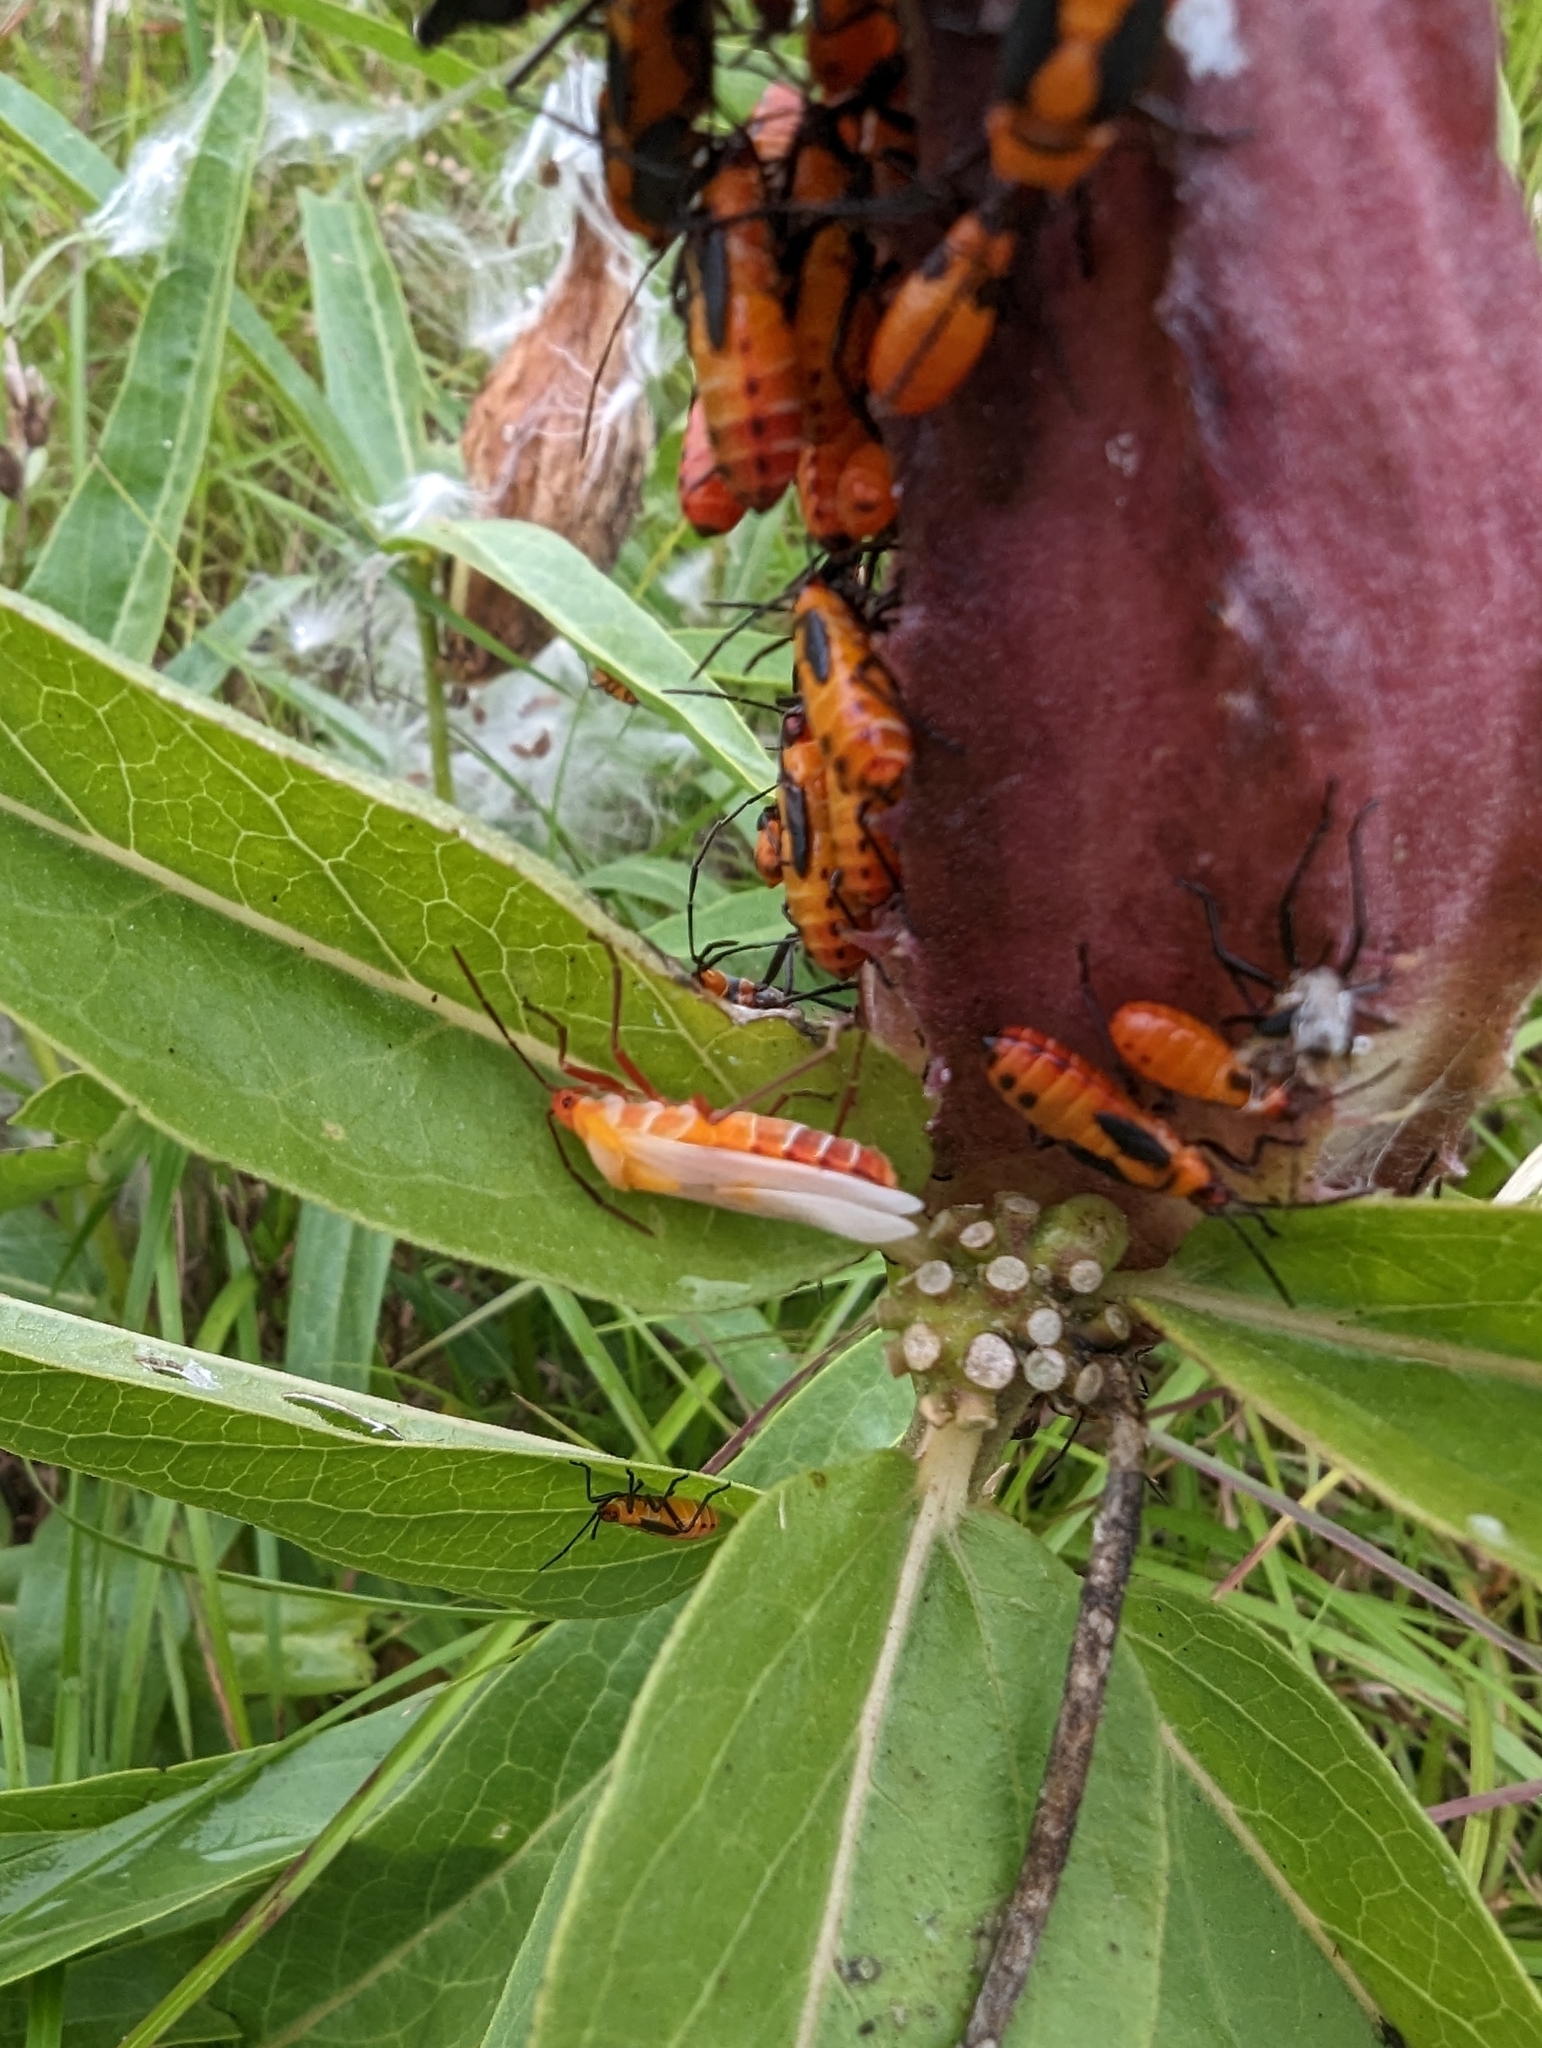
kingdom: Animalia
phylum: Arthropoda
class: Insecta
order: Hemiptera
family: Lygaeidae
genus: Oncopeltus
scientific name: Oncopeltus fasciatus
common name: Large milkweed bug
